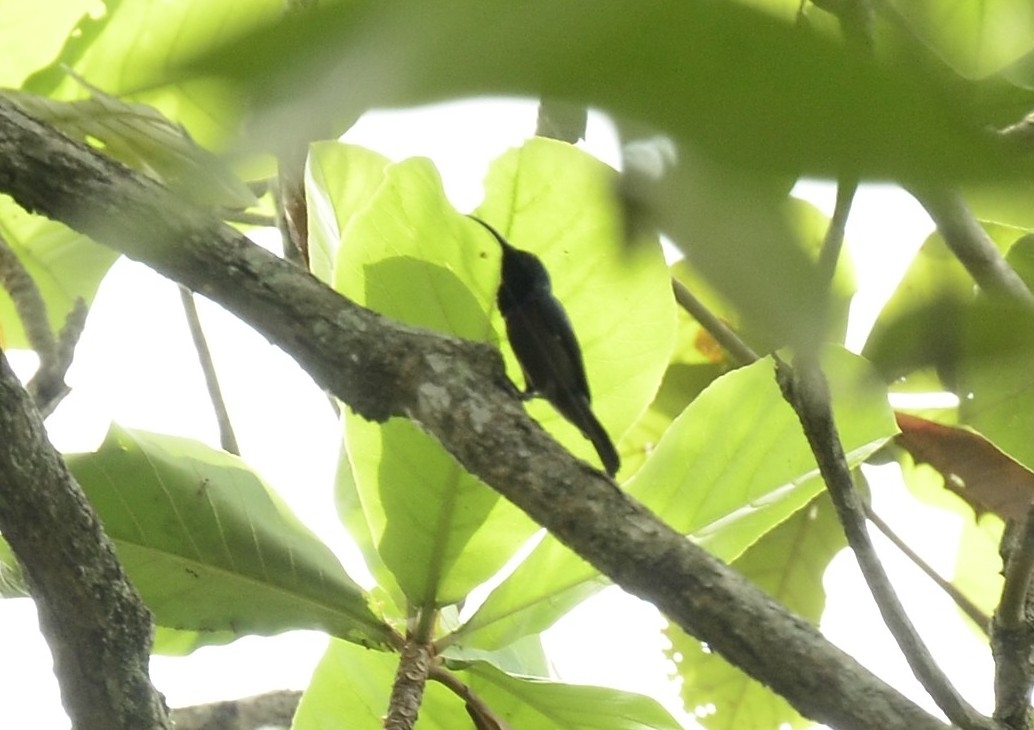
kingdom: Animalia
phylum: Chordata
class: Aves
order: Passeriformes
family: Nectariniidae
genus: Cinnyris
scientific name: Cinnyris lotenius
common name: Loten's sunbird
